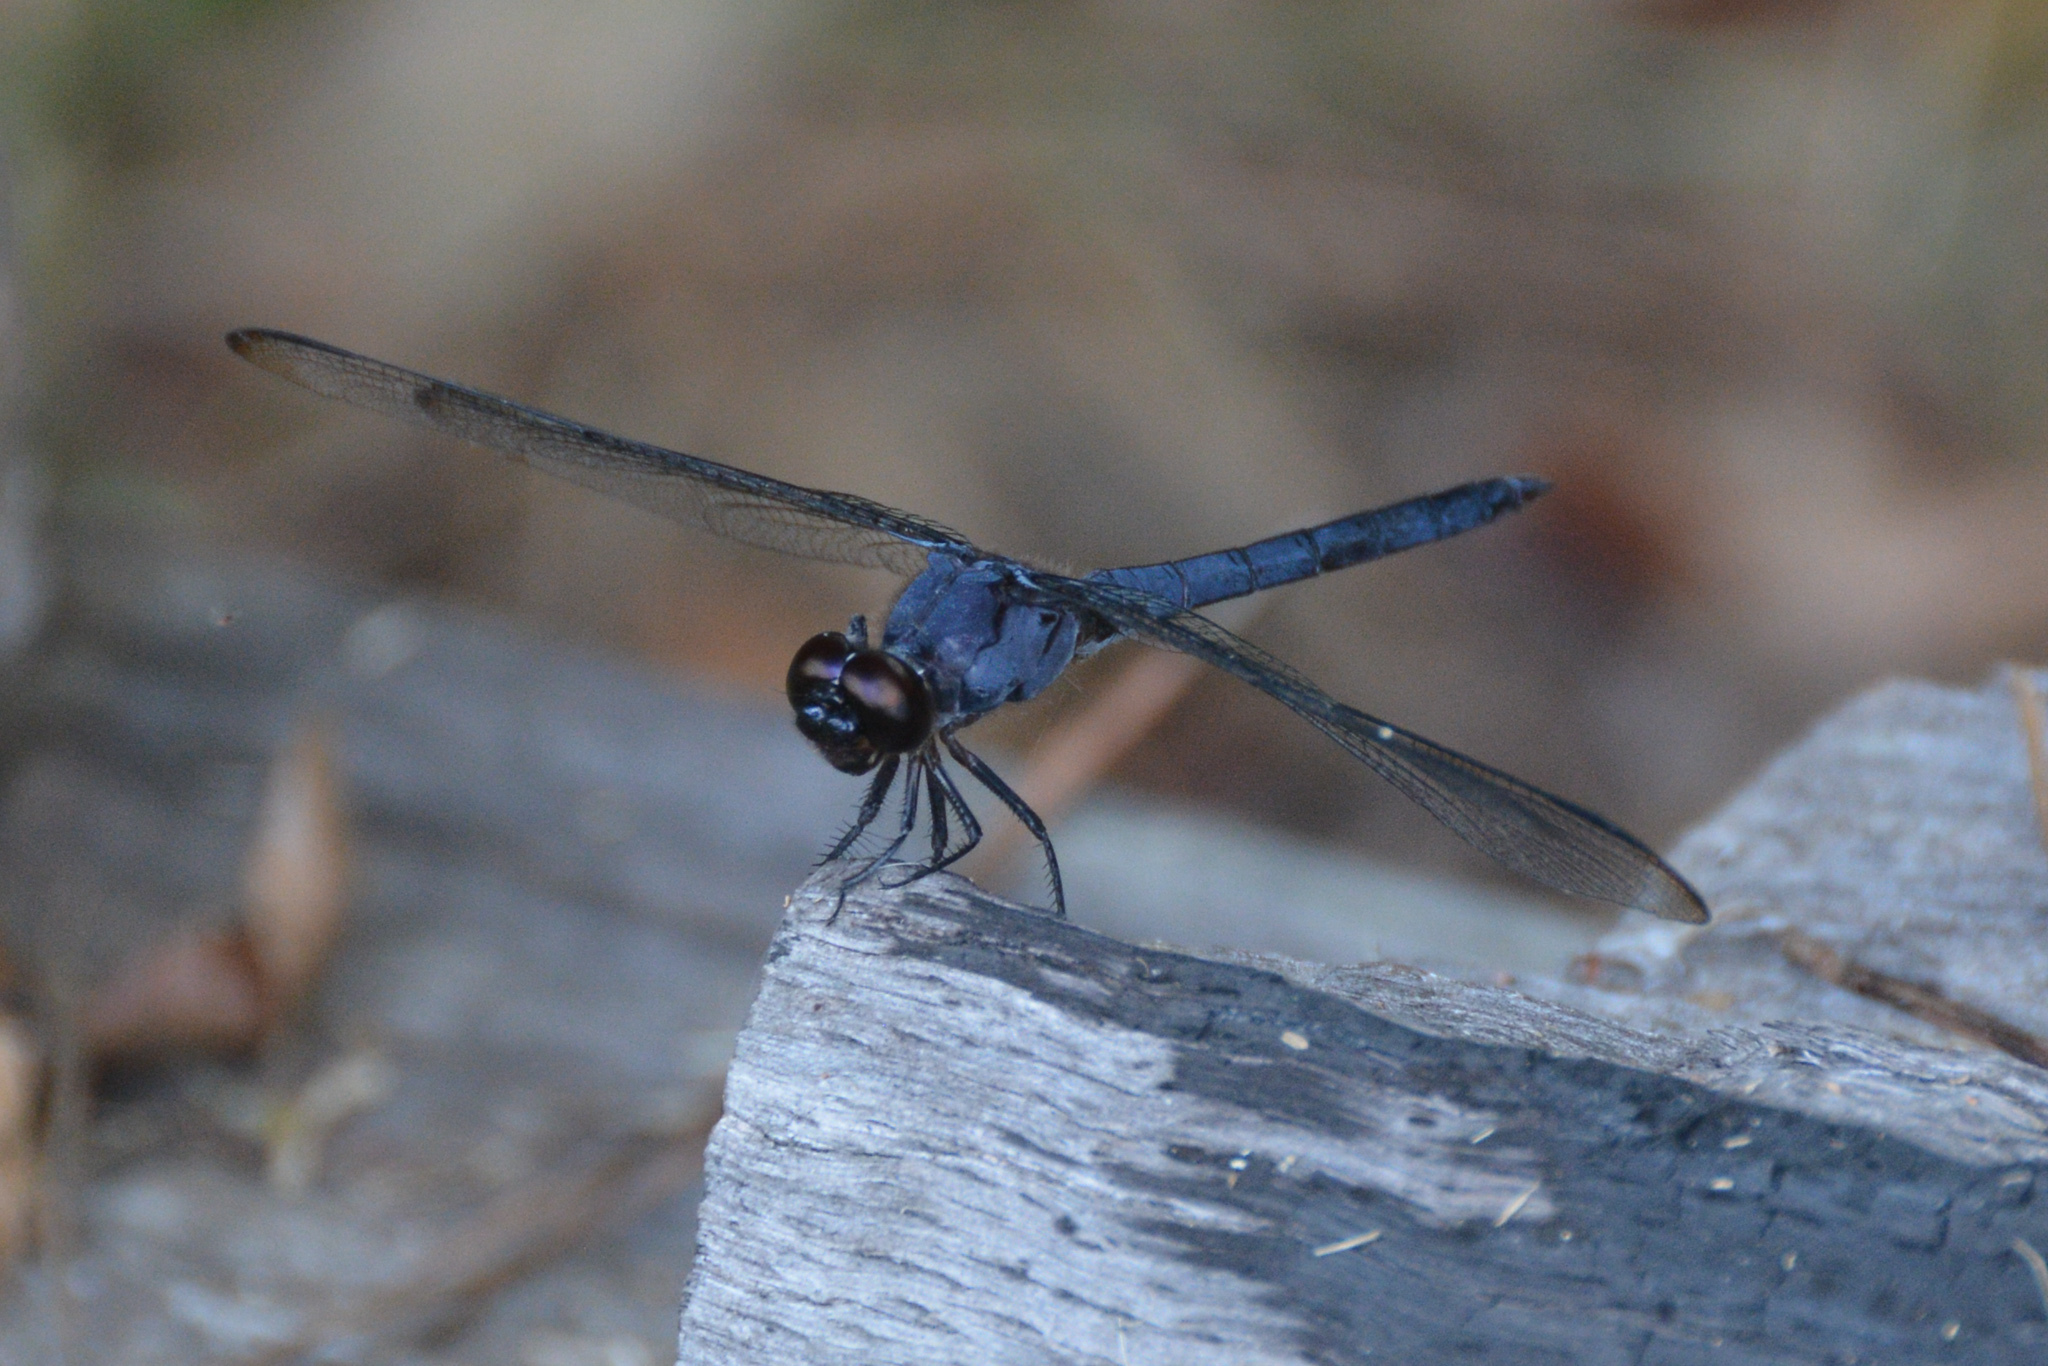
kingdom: Animalia
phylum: Arthropoda
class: Insecta
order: Odonata
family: Libellulidae
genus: Libellula
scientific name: Libellula incesta
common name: Slaty skimmer
